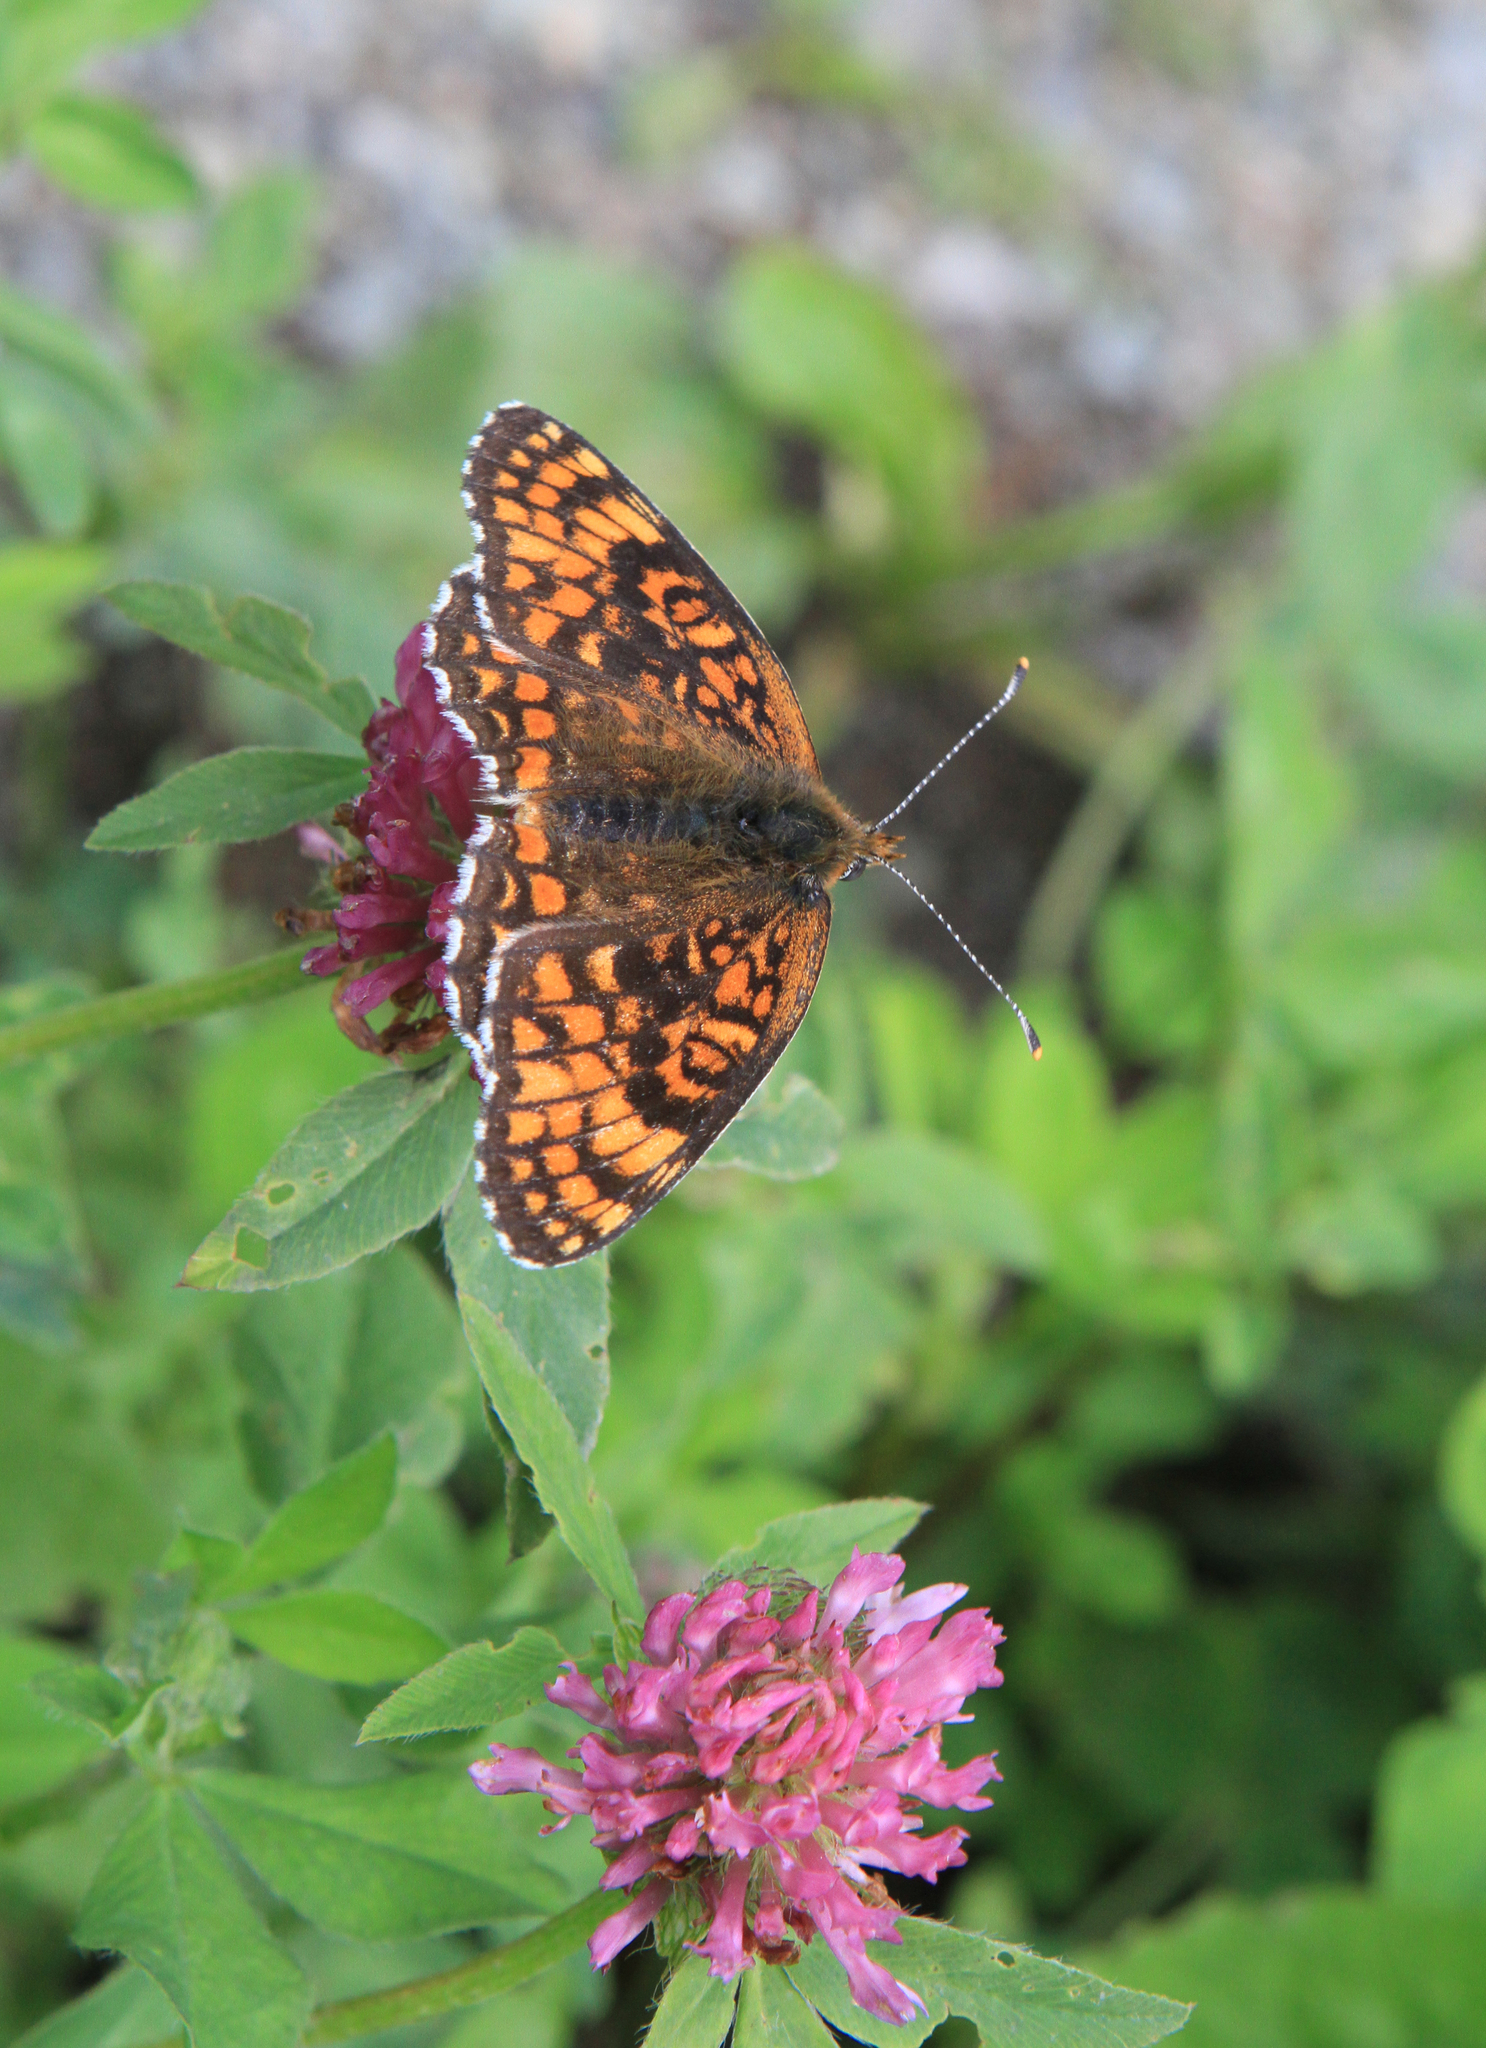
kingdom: Animalia
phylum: Arthropoda
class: Insecta
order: Lepidoptera
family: Nymphalidae
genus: Melitaea
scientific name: Melitaea phoebe
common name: Knapweed fritillary
